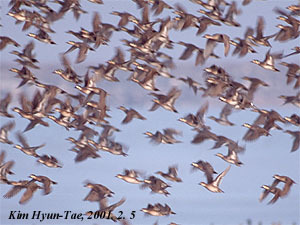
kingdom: Animalia
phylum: Chordata
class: Aves
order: Anseriformes
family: Anatidae
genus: Sibirionetta
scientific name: Sibirionetta formosa
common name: Baikal teal
